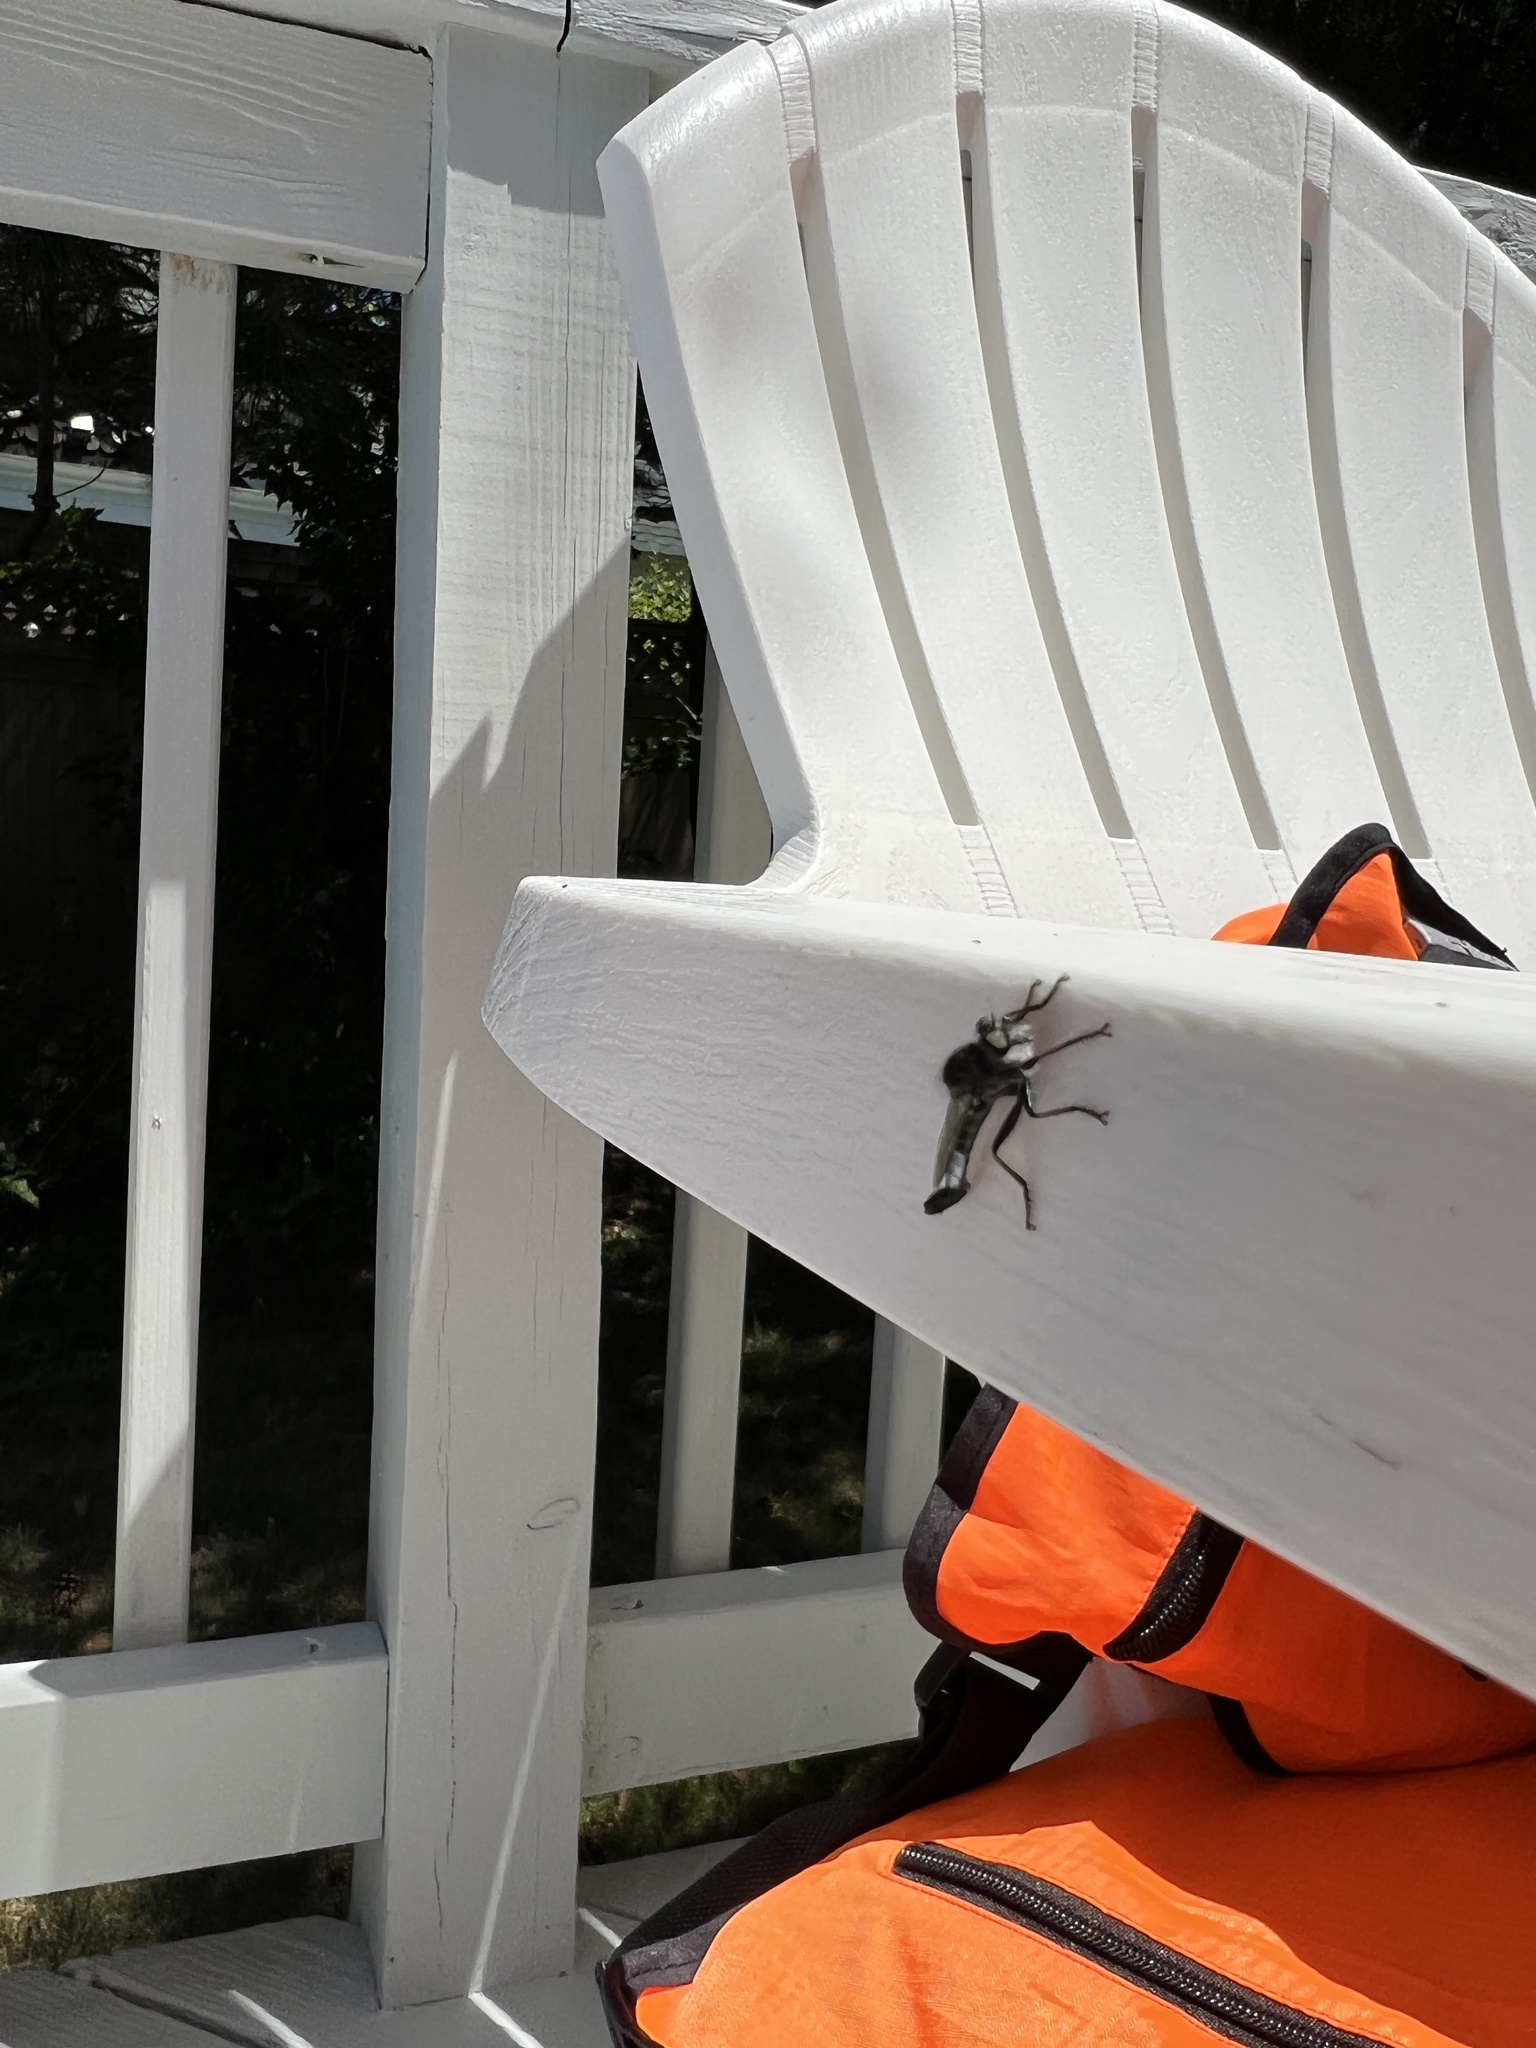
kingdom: Animalia
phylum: Arthropoda
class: Insecta
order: Diptera
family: Asilidae
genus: Efferia
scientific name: Efferia aestuans
